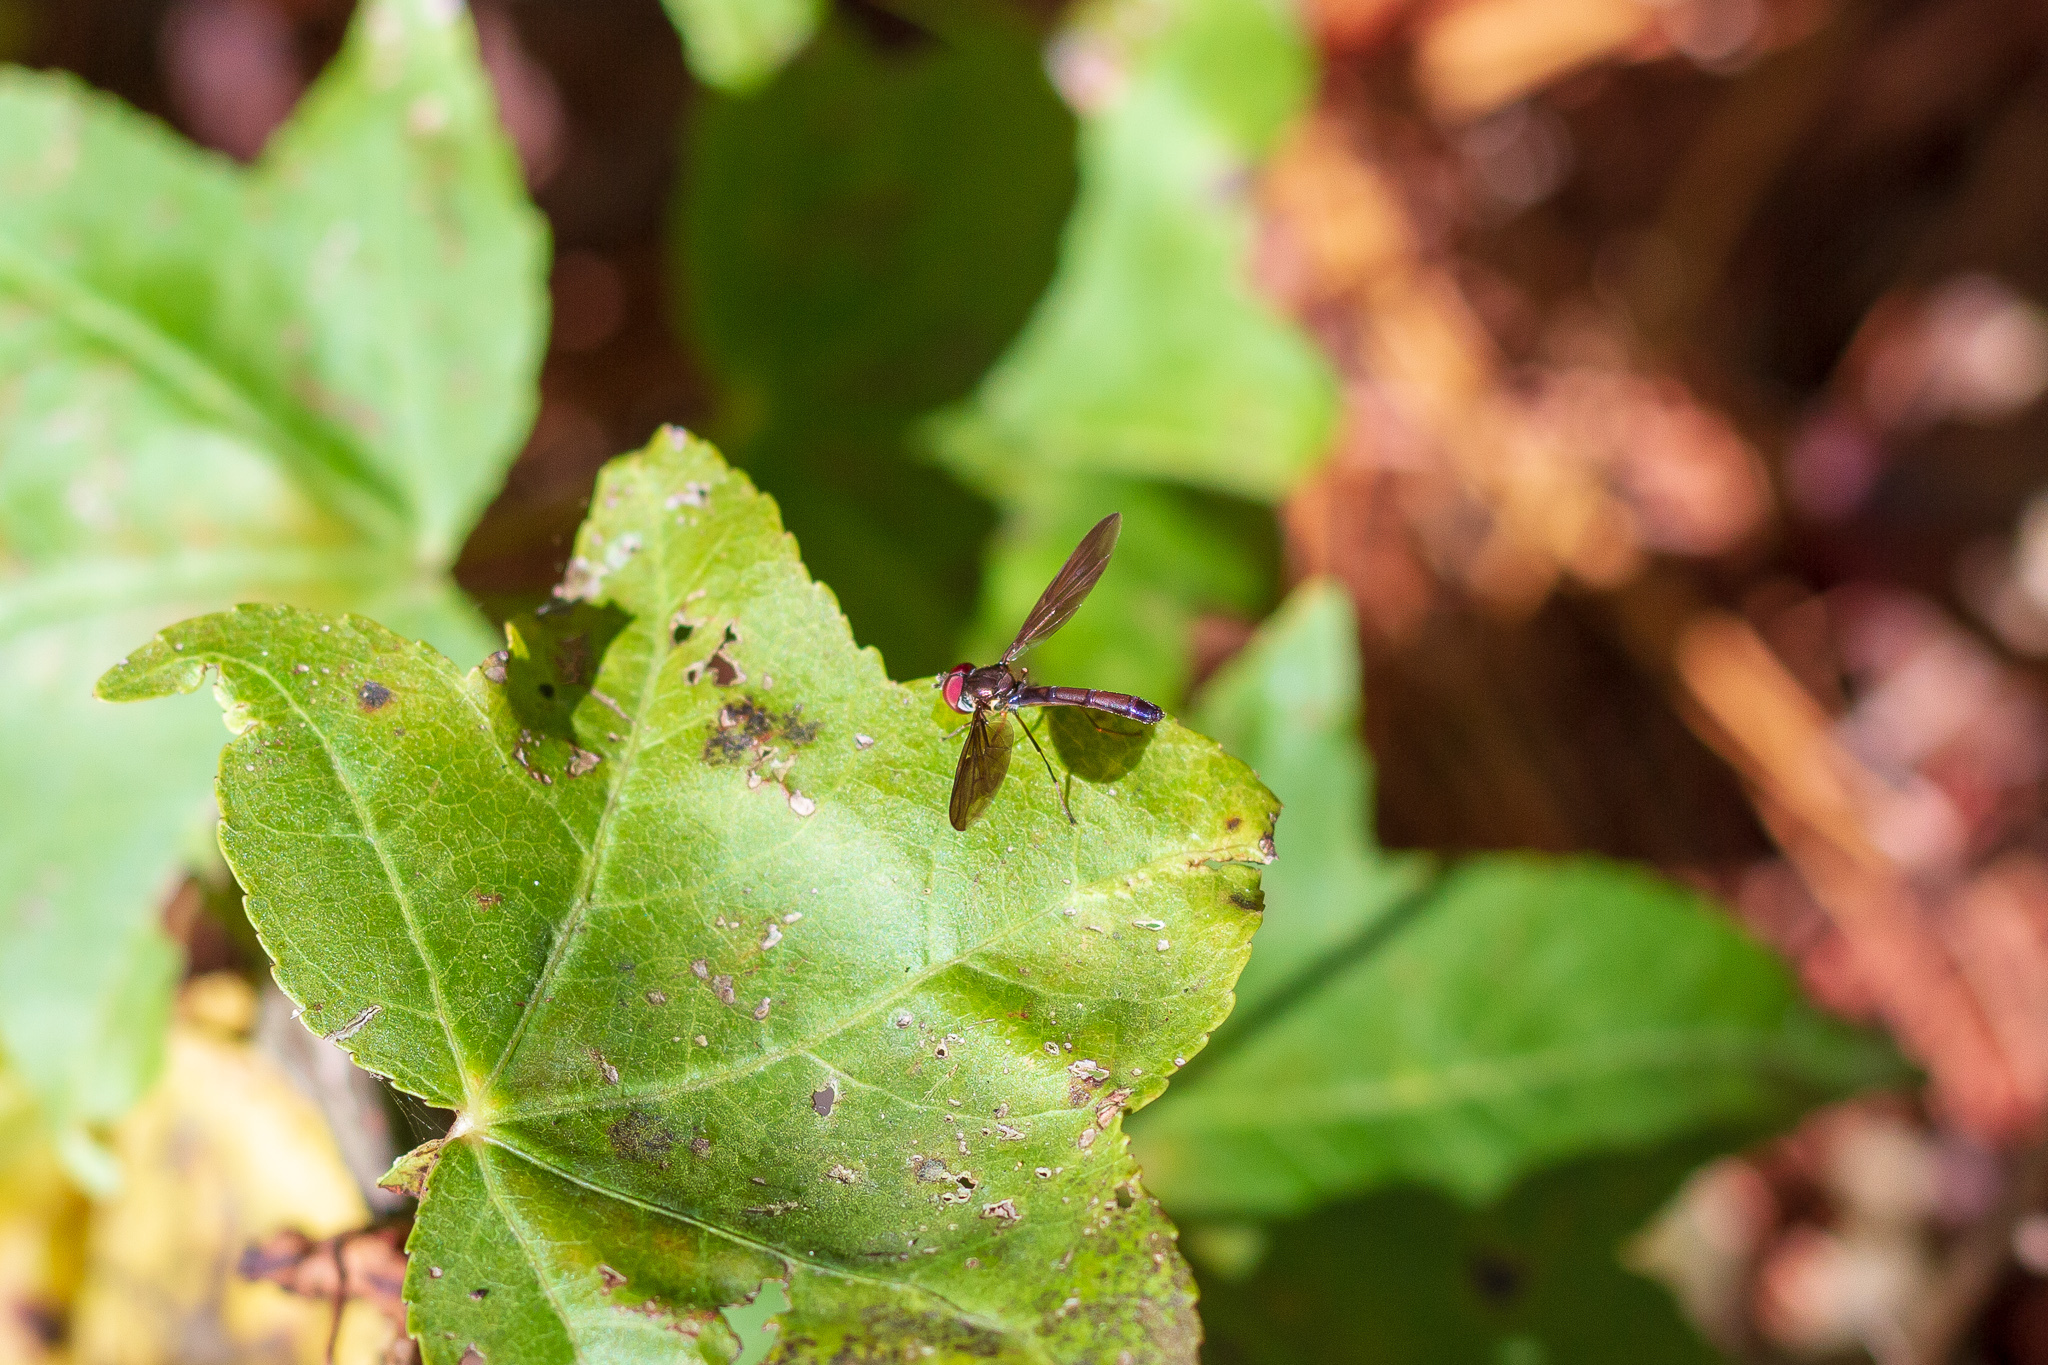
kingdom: Animalia
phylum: Arthropoda
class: Insecta
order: Diptera
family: Syrphidae
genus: Ocyptamus
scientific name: Ocyptamus fuscipennis
